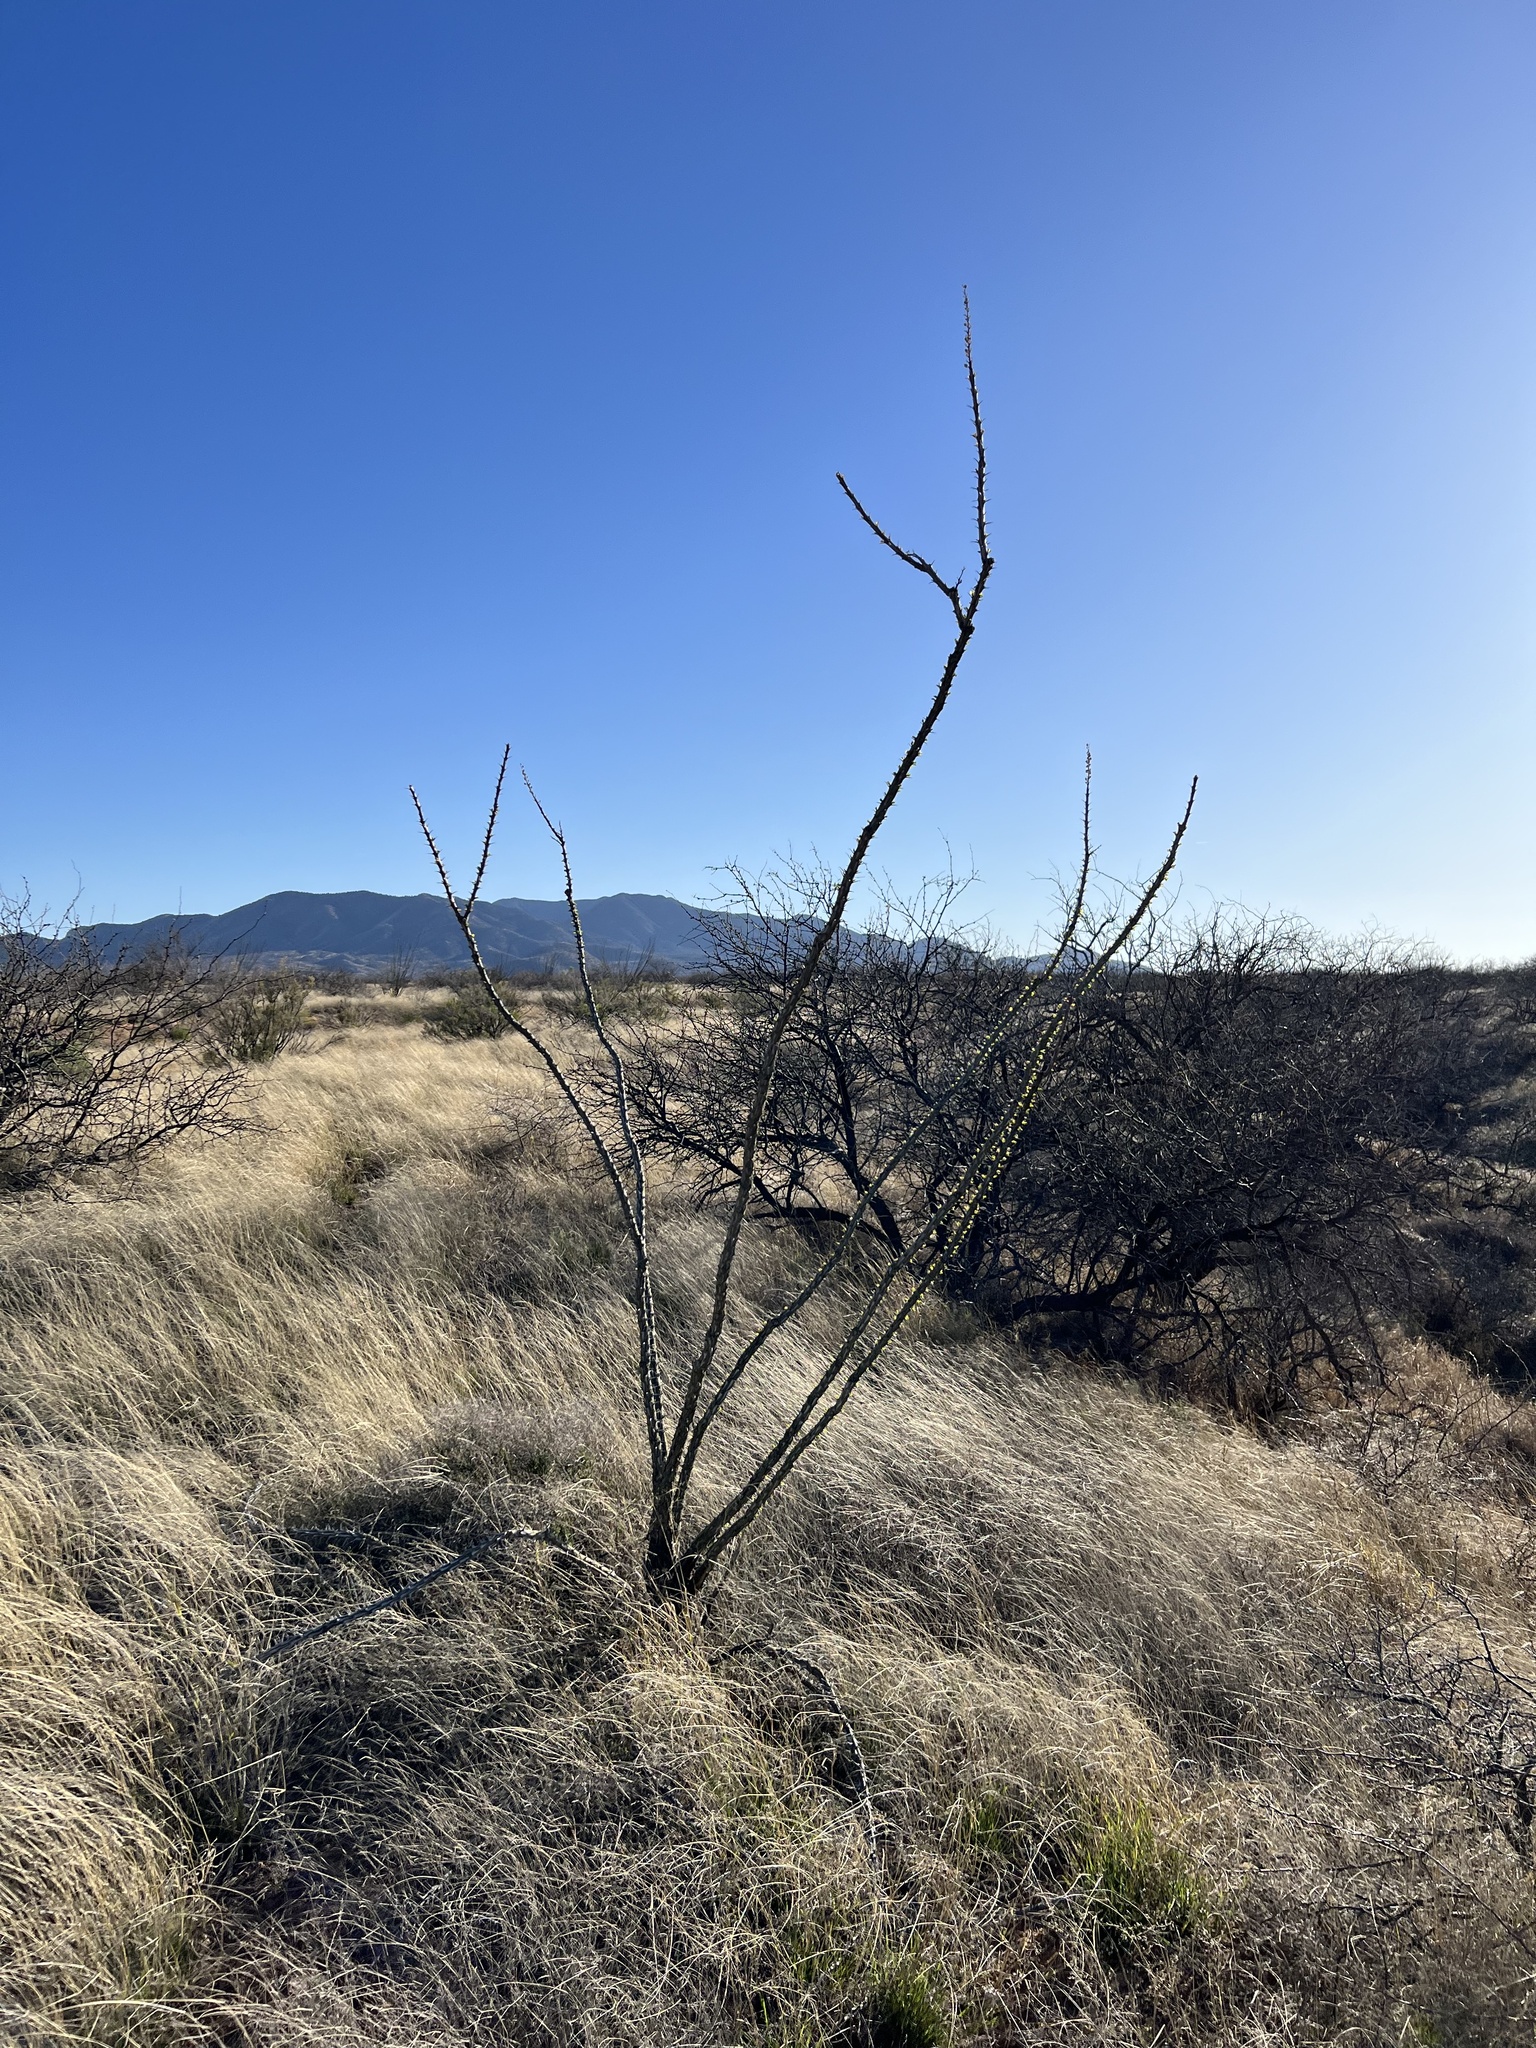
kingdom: Plantae
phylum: Tracheophyta
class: Magnoliopsida
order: Ericales
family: Fouquieriaceae
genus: Fouquieria
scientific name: Fouquieria splendens
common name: Vine-cactus
